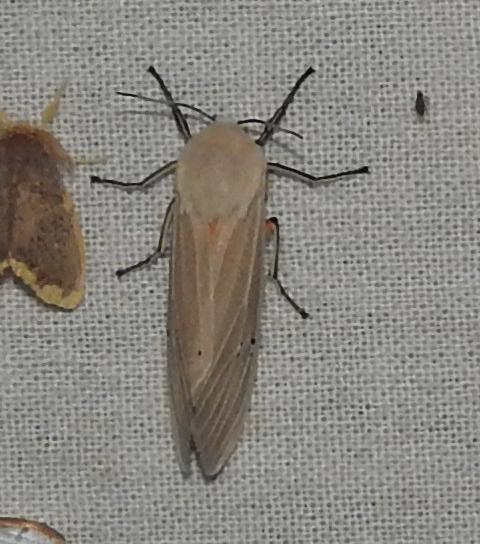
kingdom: Animalia
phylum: Arthropoda
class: Insecta
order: Lepidoptera
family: Erebidae
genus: Creatonotos
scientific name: Creatonotos transiens
